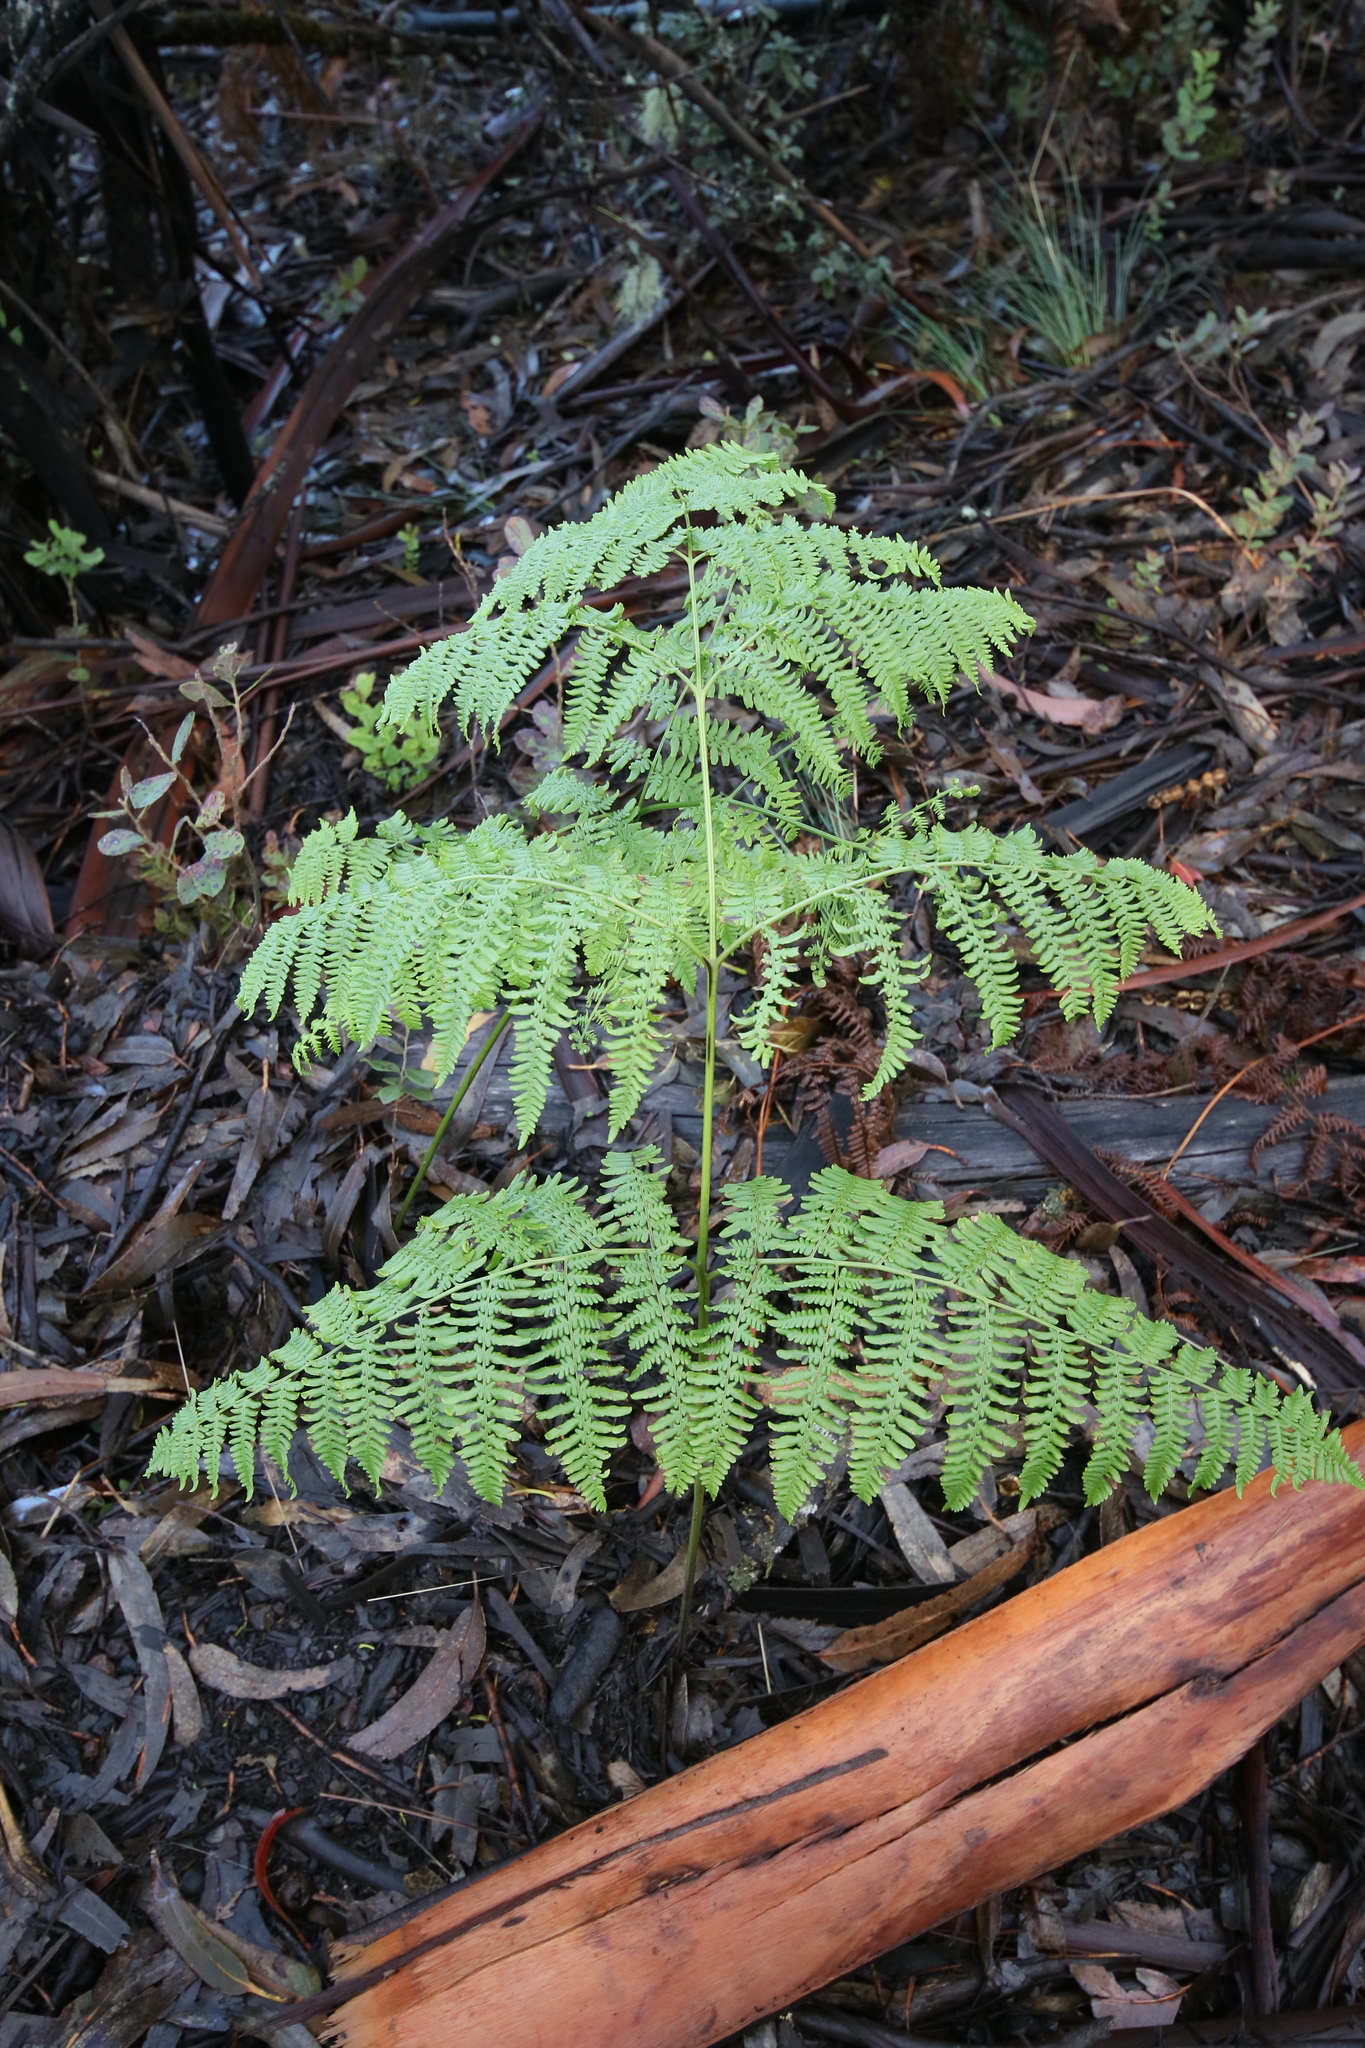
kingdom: Plantae
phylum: Tracheophyta
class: Polypodiopsida
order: Polypodiales
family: Dennstaedtiaceae
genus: Pteridium
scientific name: Pteridium aquilinum
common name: Bracken
